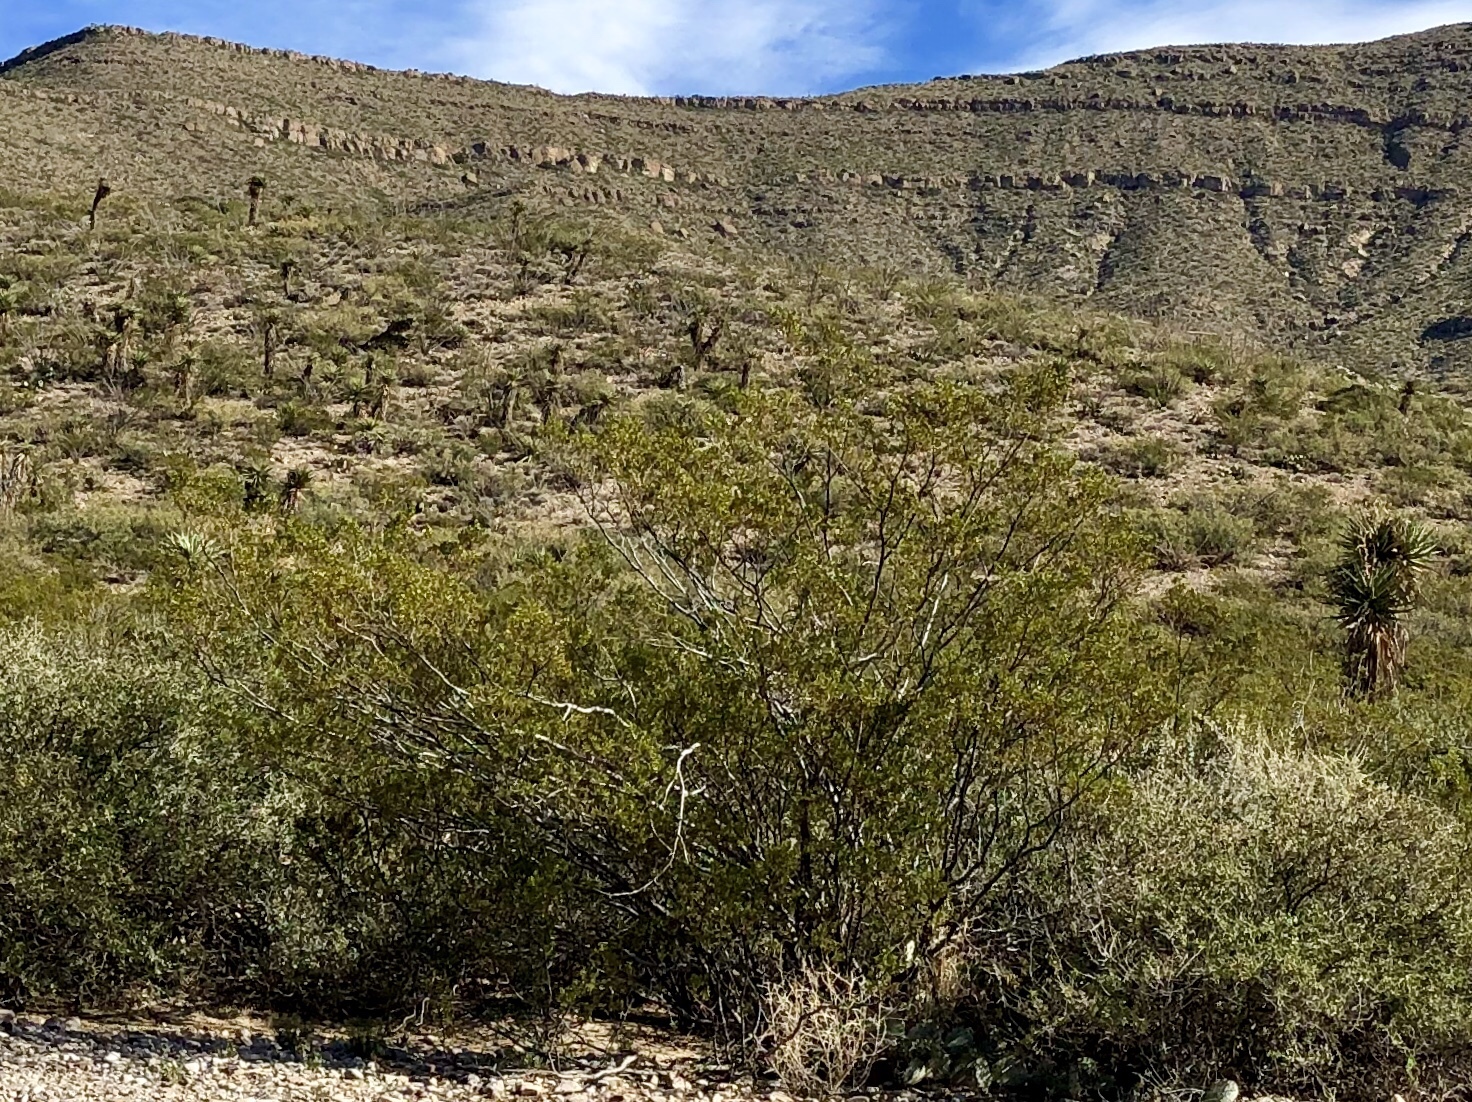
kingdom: Plantae
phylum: Tracheophyta
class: Magnoliopsida
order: Zygophyllales
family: Zygophyllaceae
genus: Larrea
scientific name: Larrea tridentata
